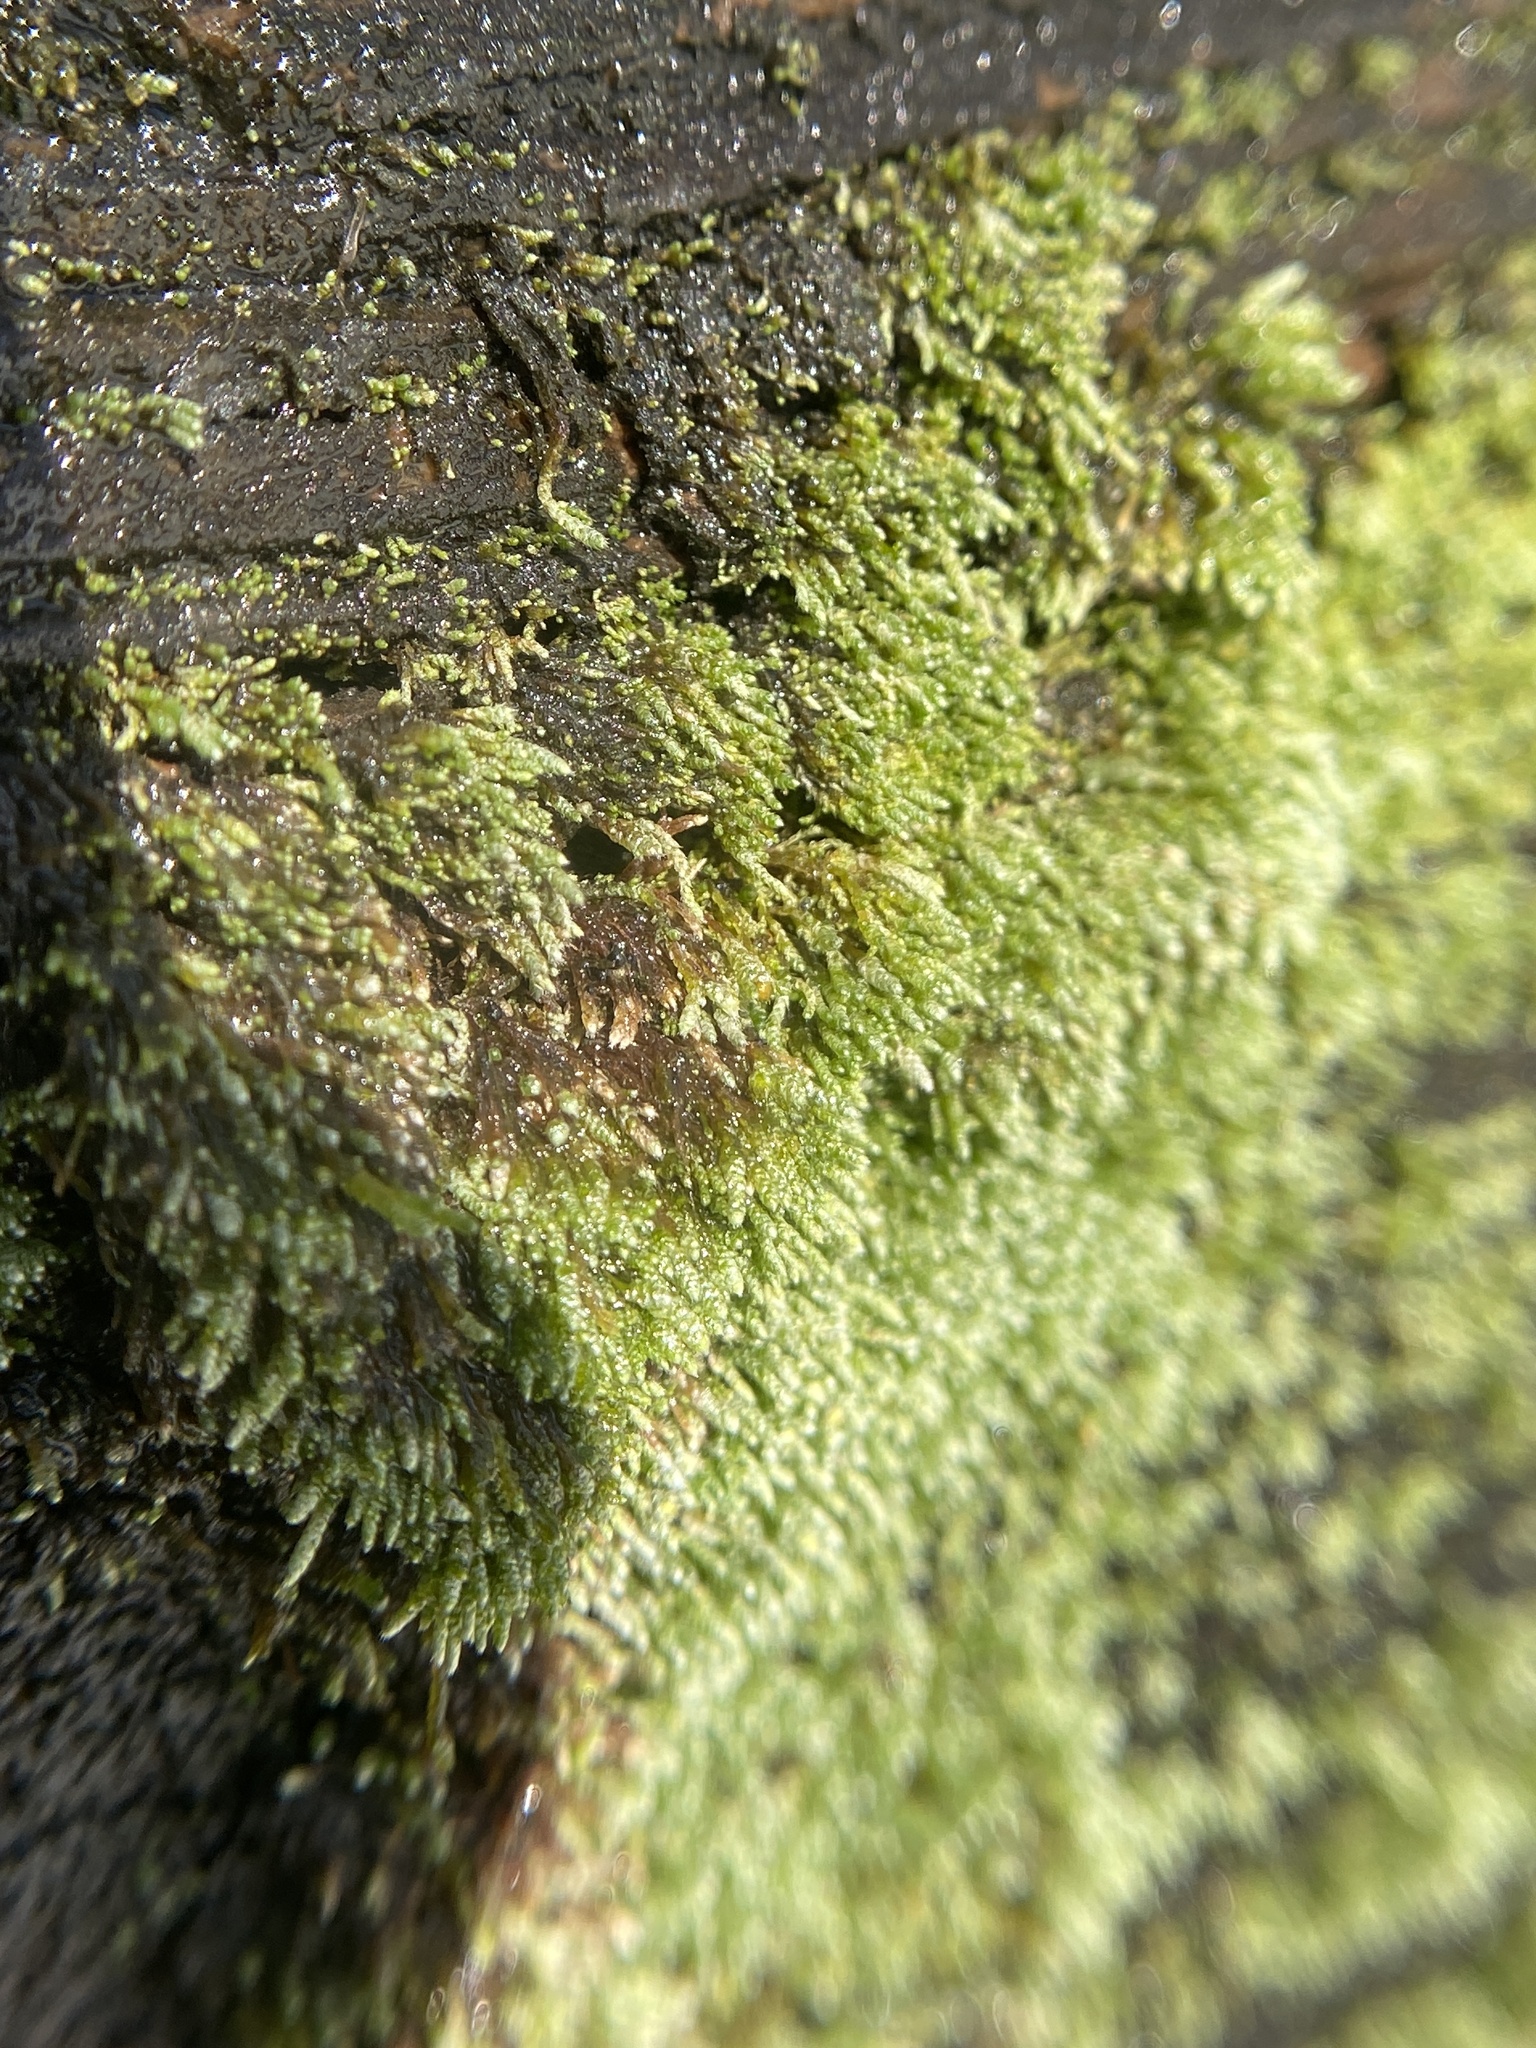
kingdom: Plantae
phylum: Bryophyta
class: Bryopsida
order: Bryales
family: Bryaceae
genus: Bryum
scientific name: Bryum argenteum
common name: Silver-moss
